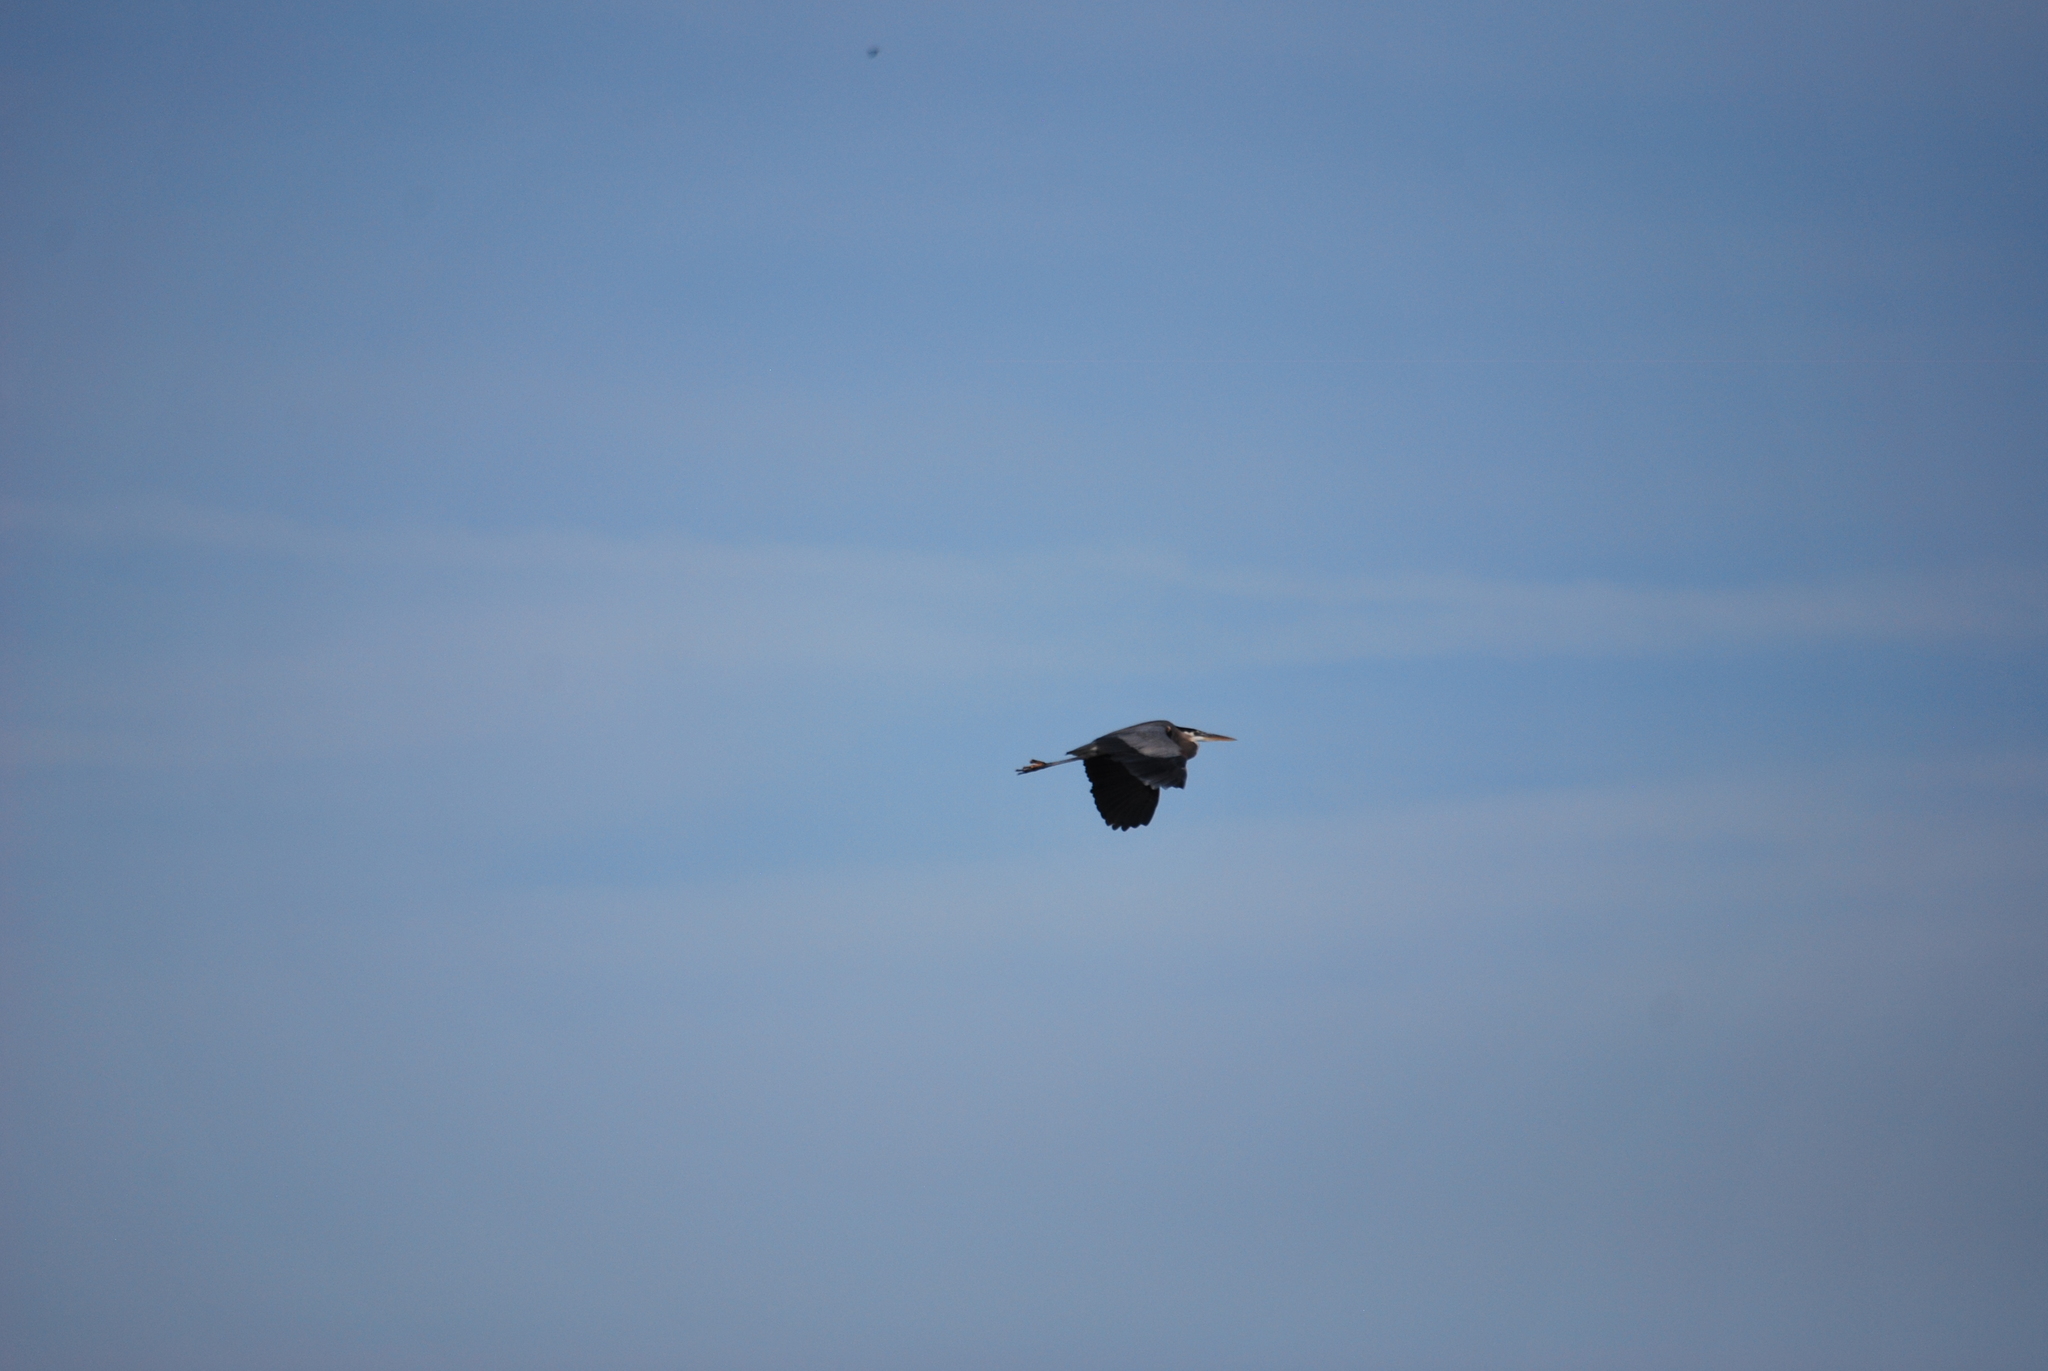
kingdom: Animalia
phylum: Chordata
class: Aves
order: Pelecaniformes
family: Ardeidae
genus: Ardea
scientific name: Ardea herodias
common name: Great blue heron
